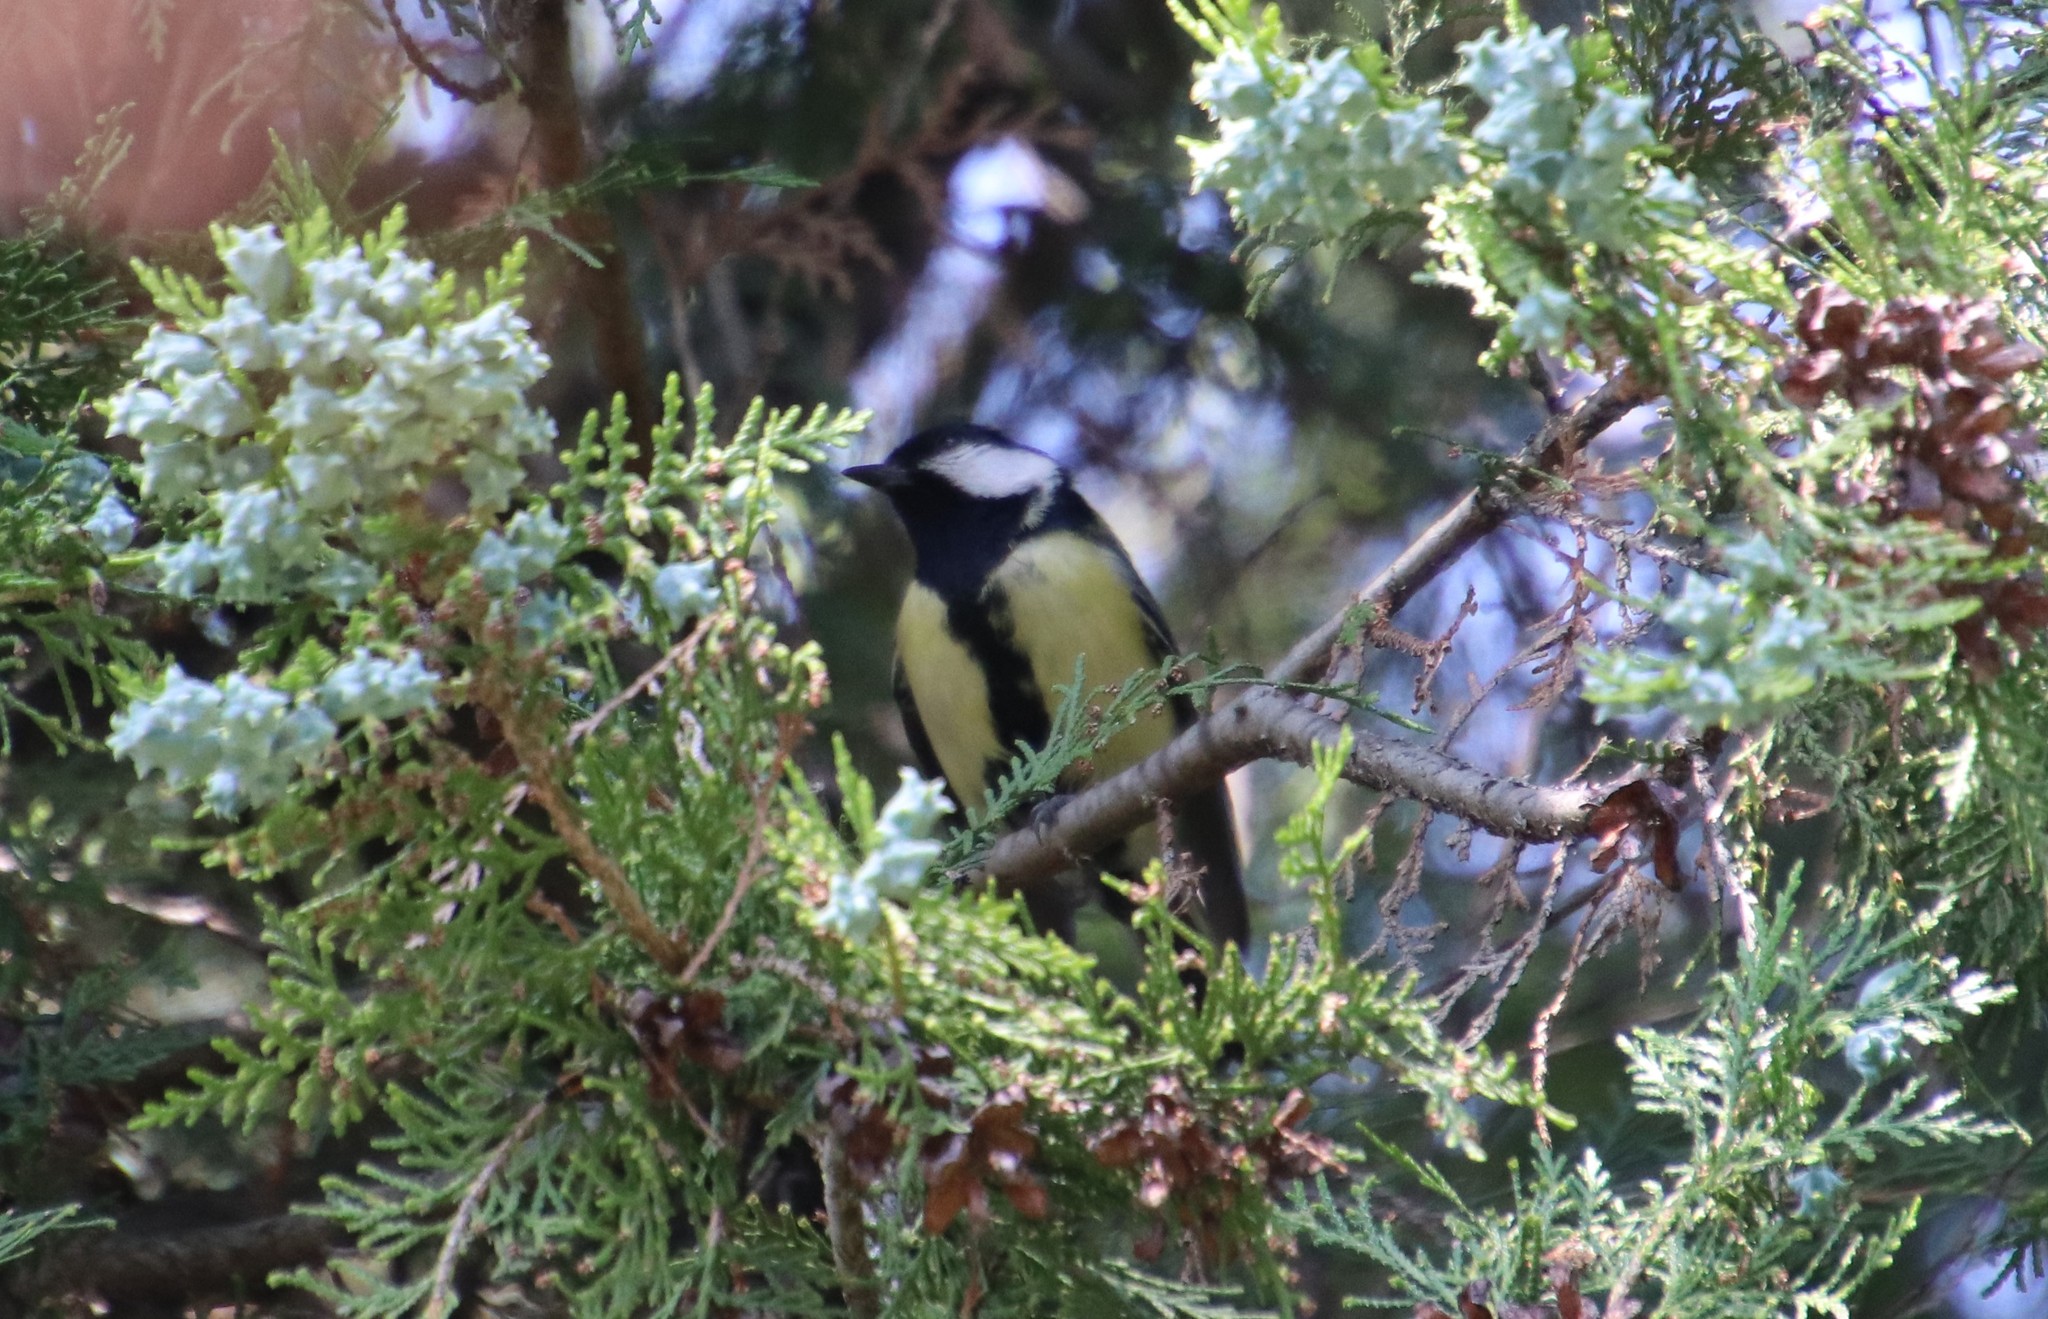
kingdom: Animalia
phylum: Chordata
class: Aves
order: Passeriformes
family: Paridae
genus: Parus
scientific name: Parus major
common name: Great tit
